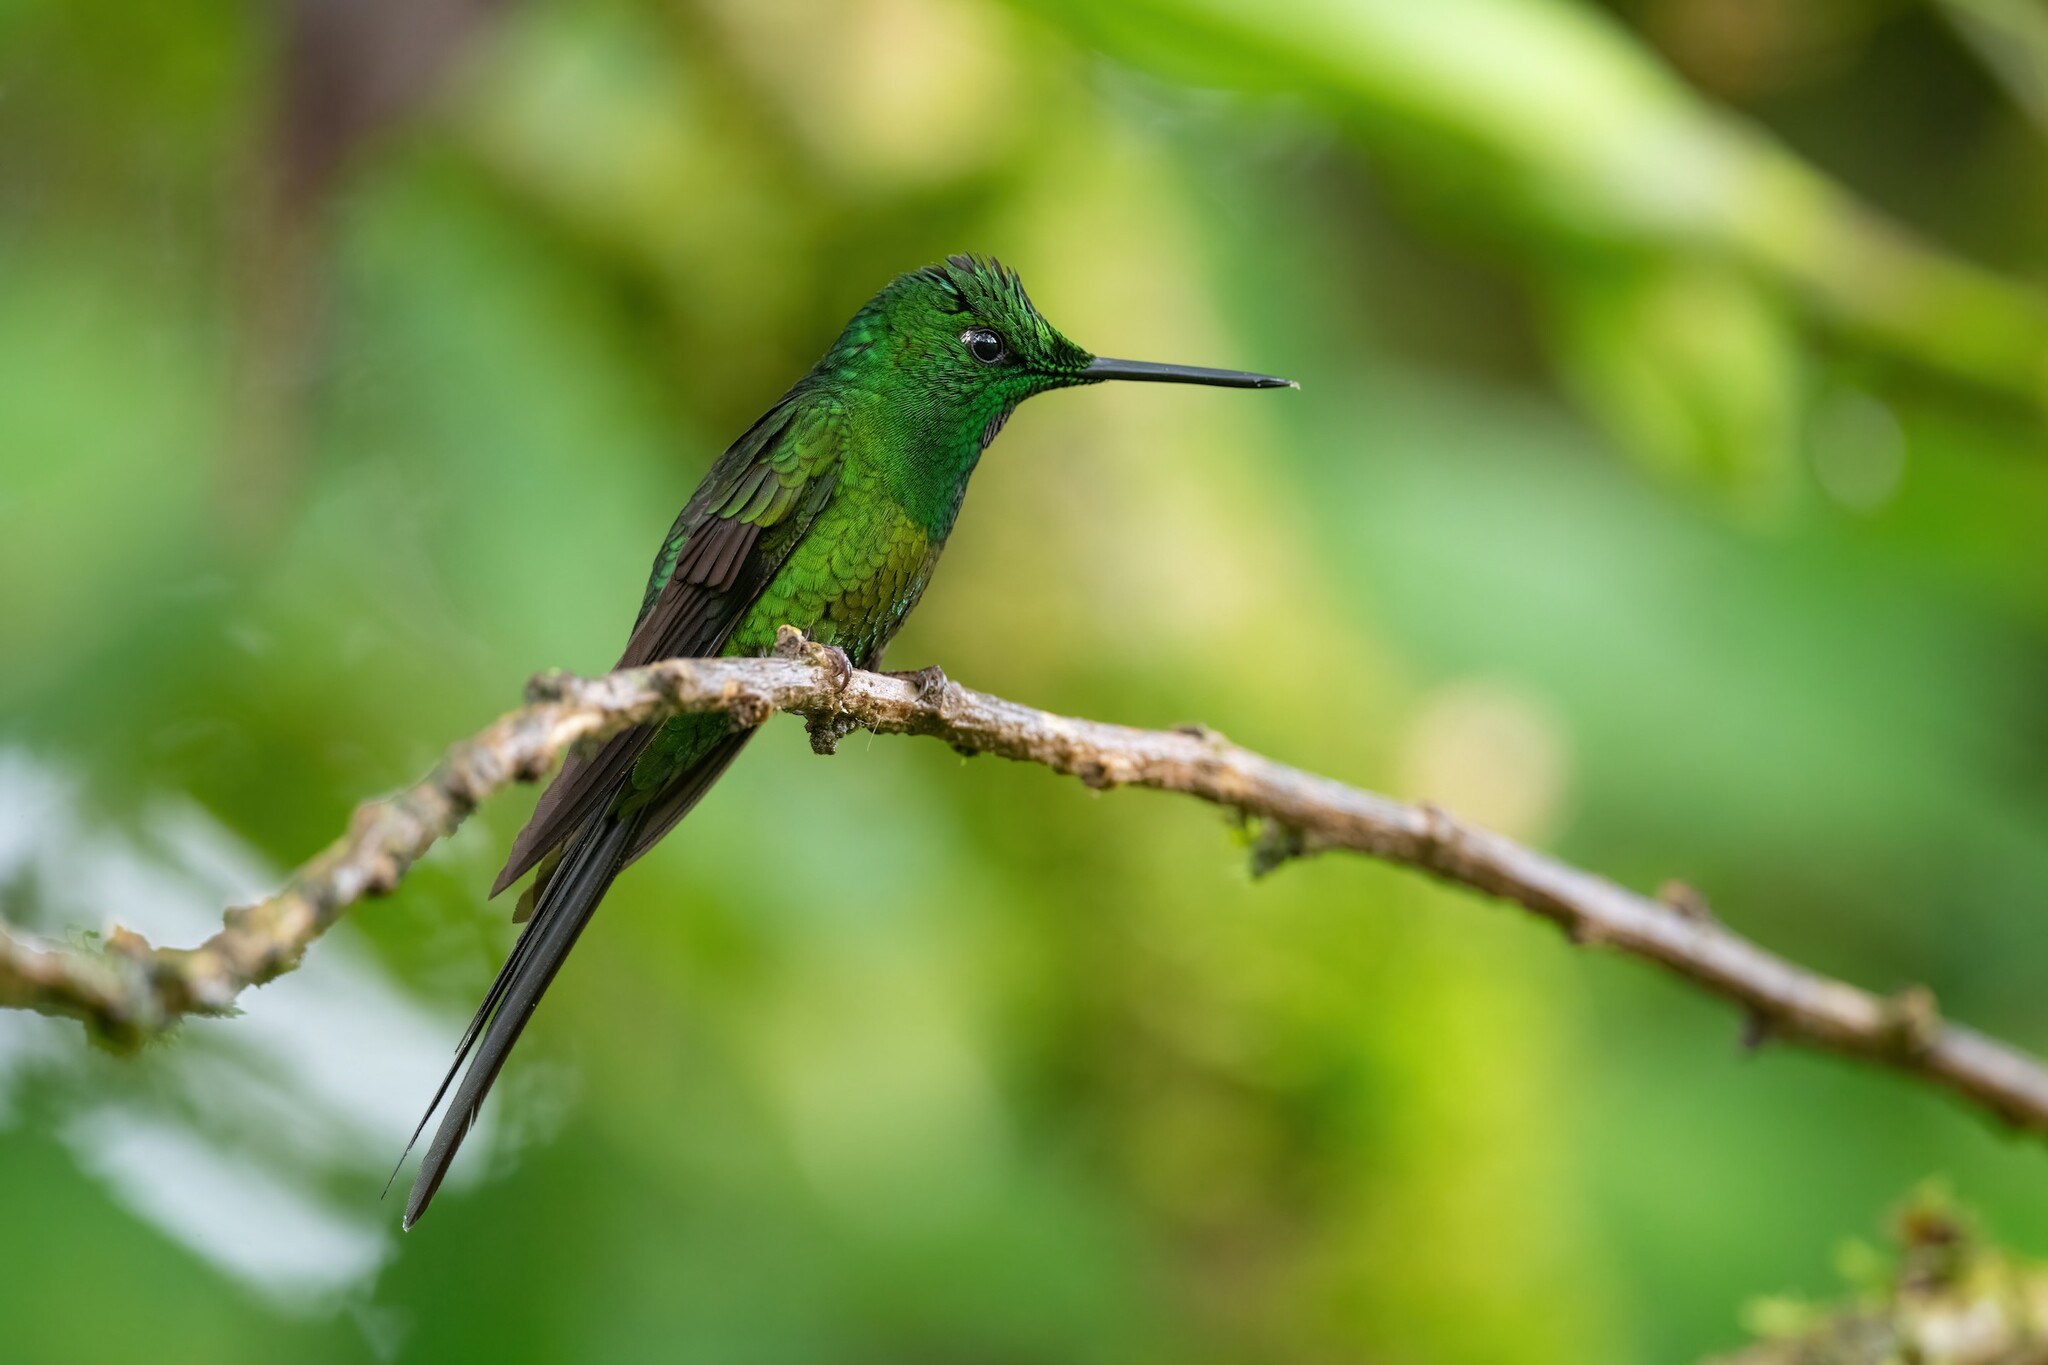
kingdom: Animalia
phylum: Chordata
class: Aves
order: Apodiformes
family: Trochilidae
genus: Heliodoxa
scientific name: Heliodoxa imperatrix
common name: Empress brilliant
